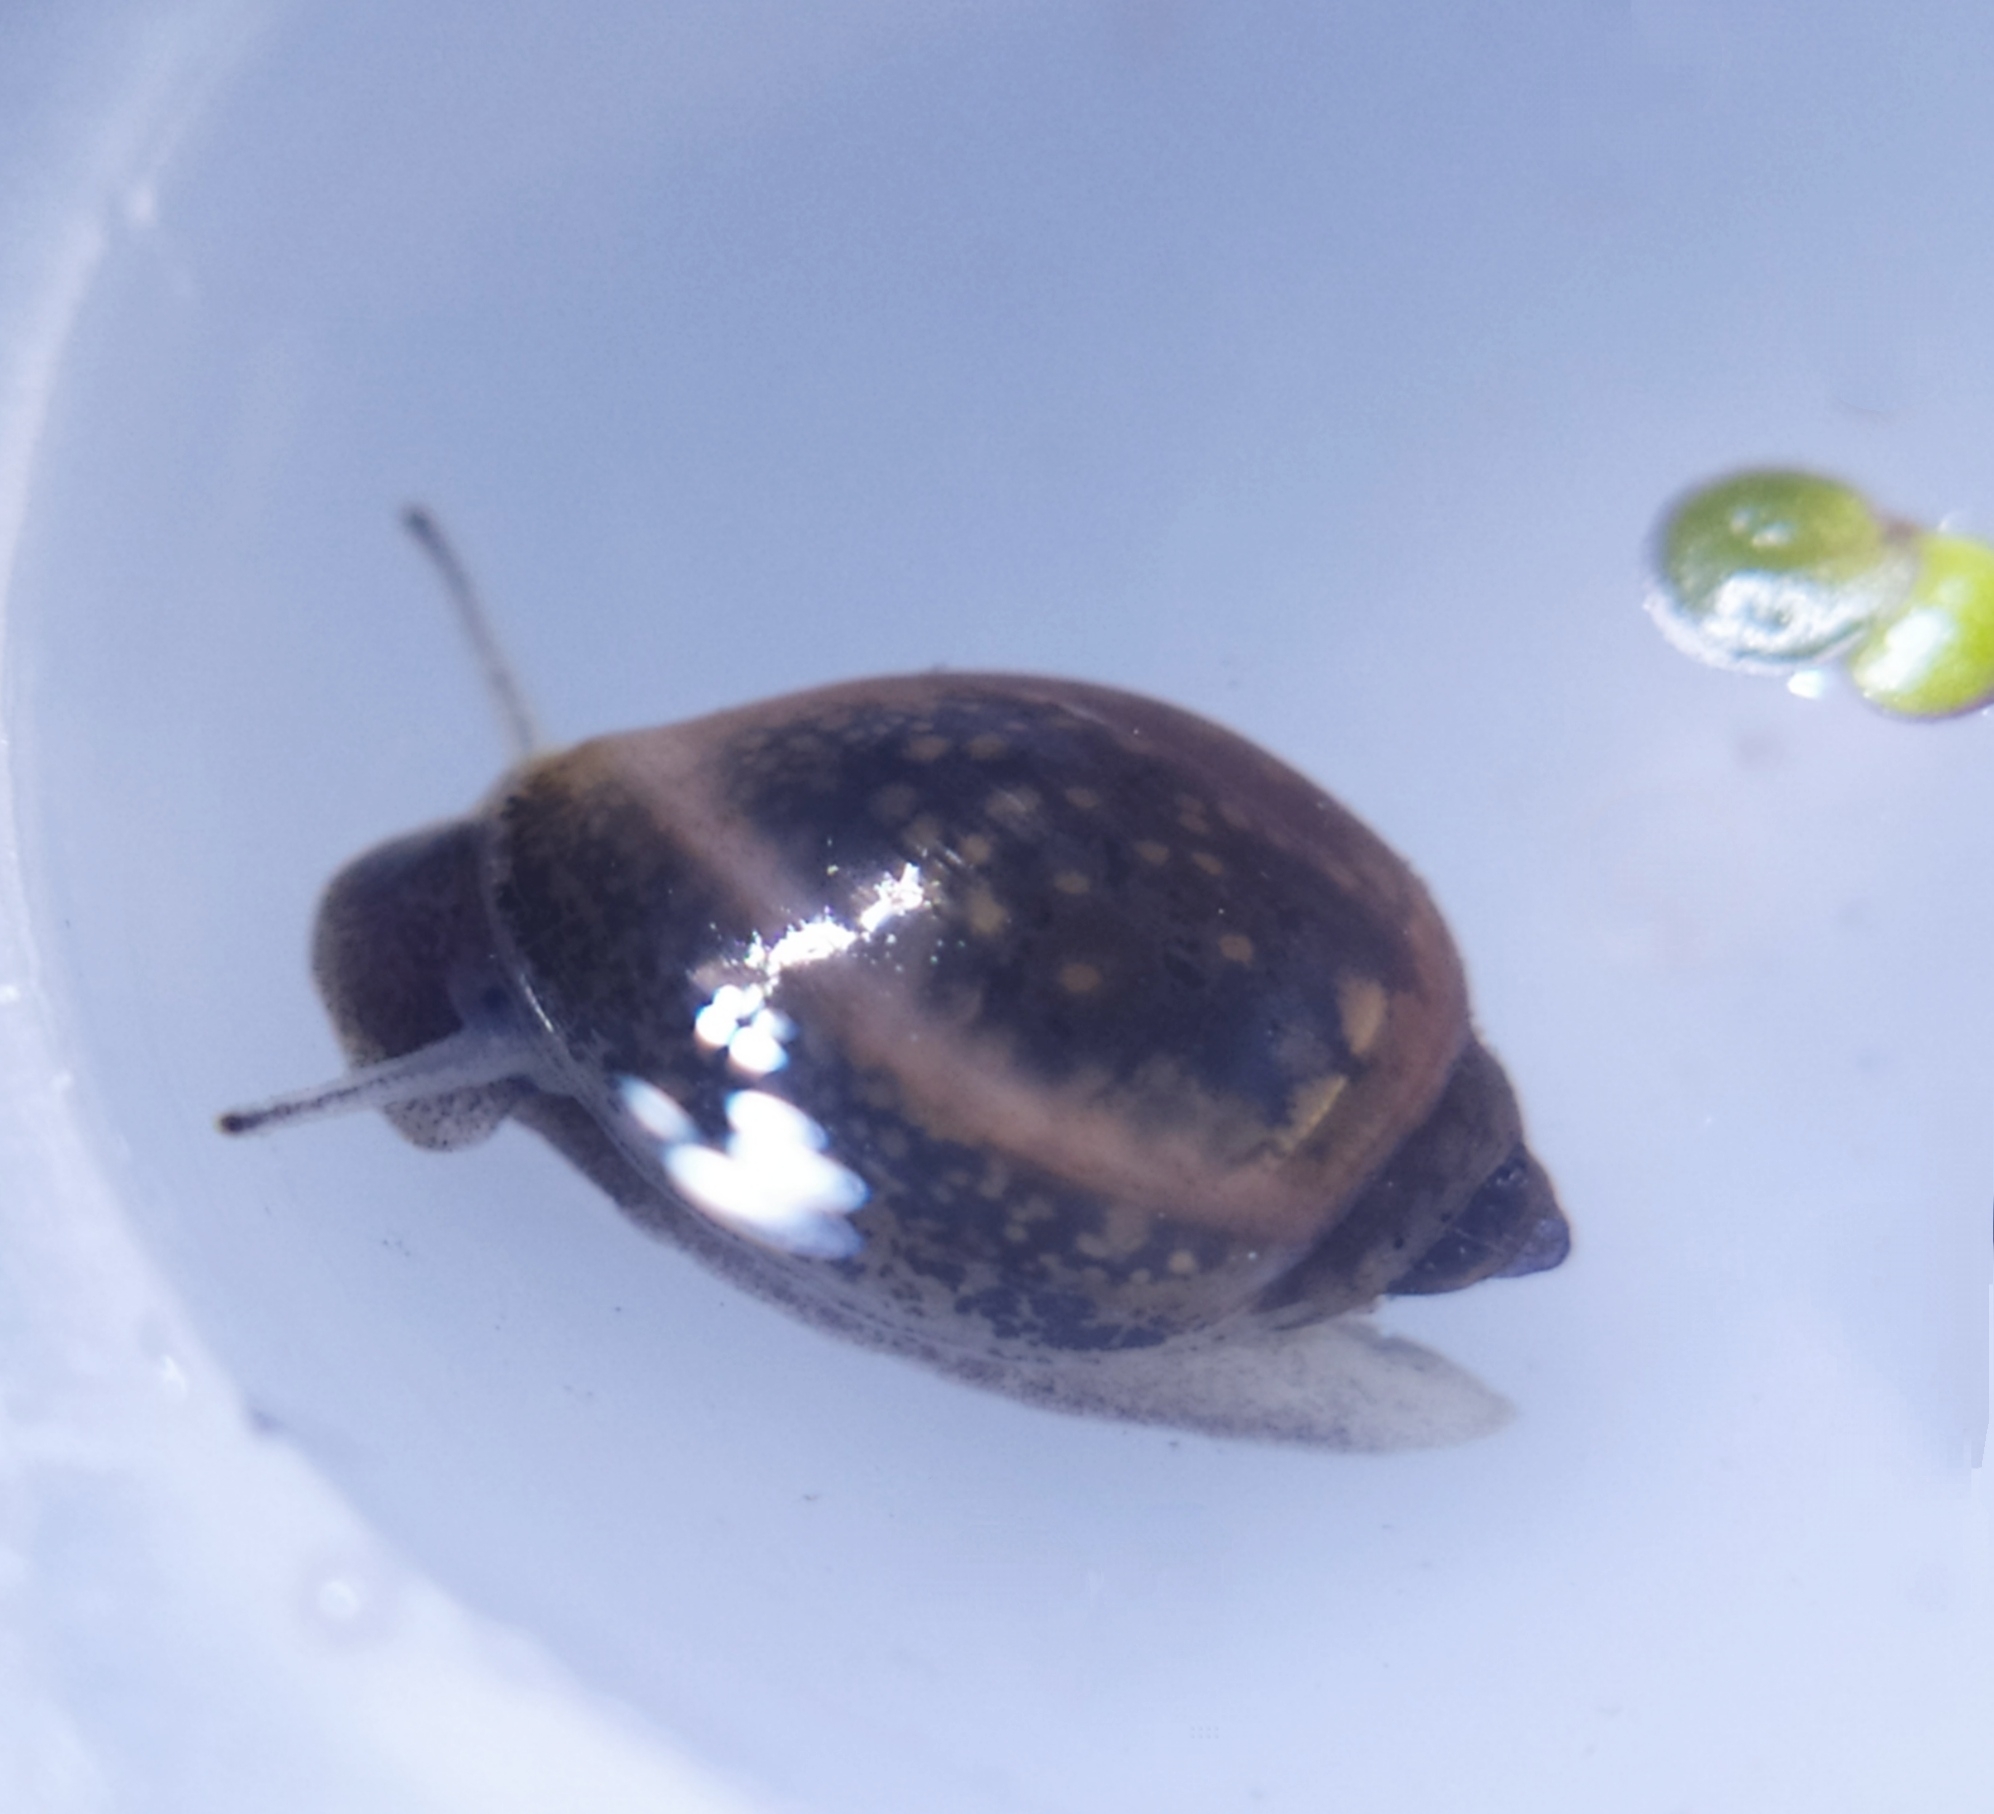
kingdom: Animalia
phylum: Mollusca
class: Gastropoda
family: Physidae
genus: Physella
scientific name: Physella acuta
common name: European physa
